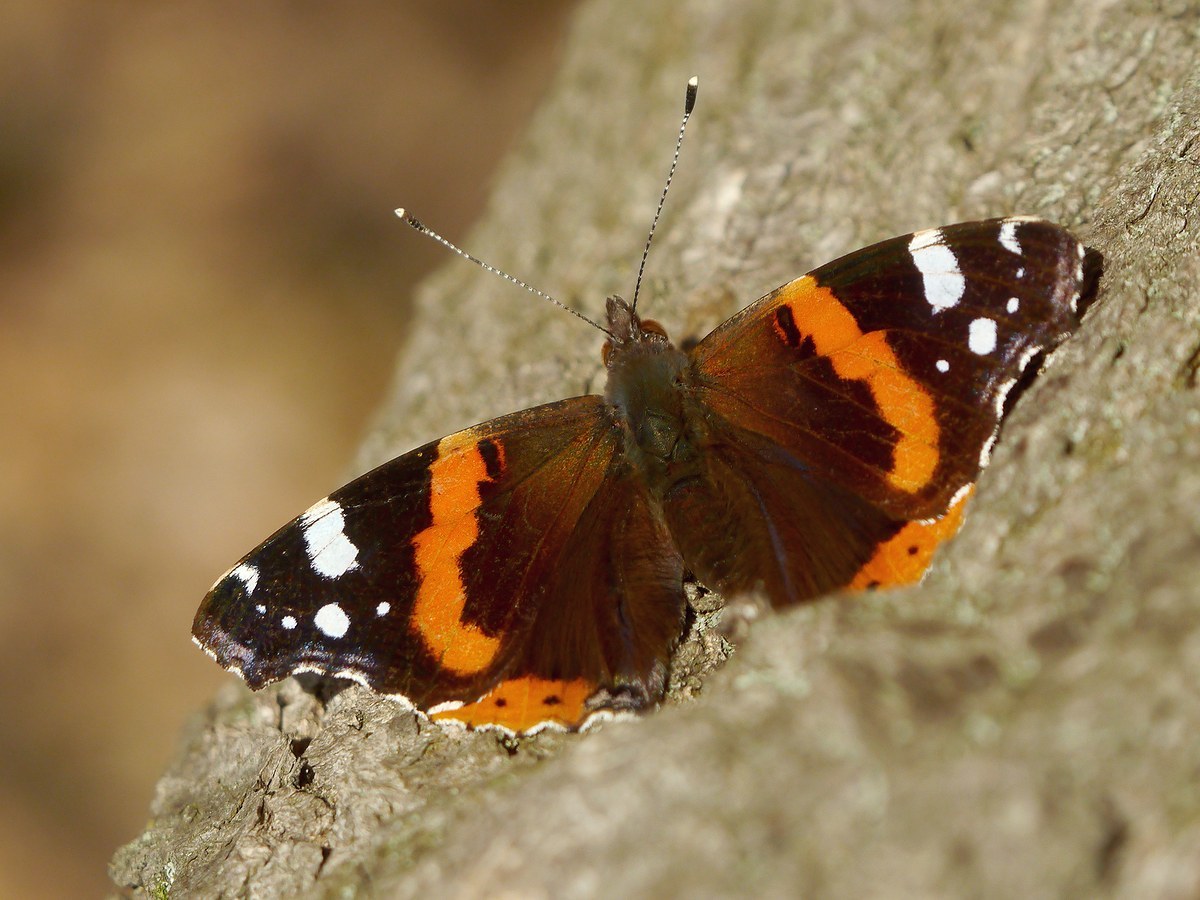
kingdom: Animalia
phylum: Arthropoda
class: Insecta
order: Lepidoptera
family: Nymphalidae
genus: Vanessa
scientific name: Vanessa atalanta
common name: Red admiral
